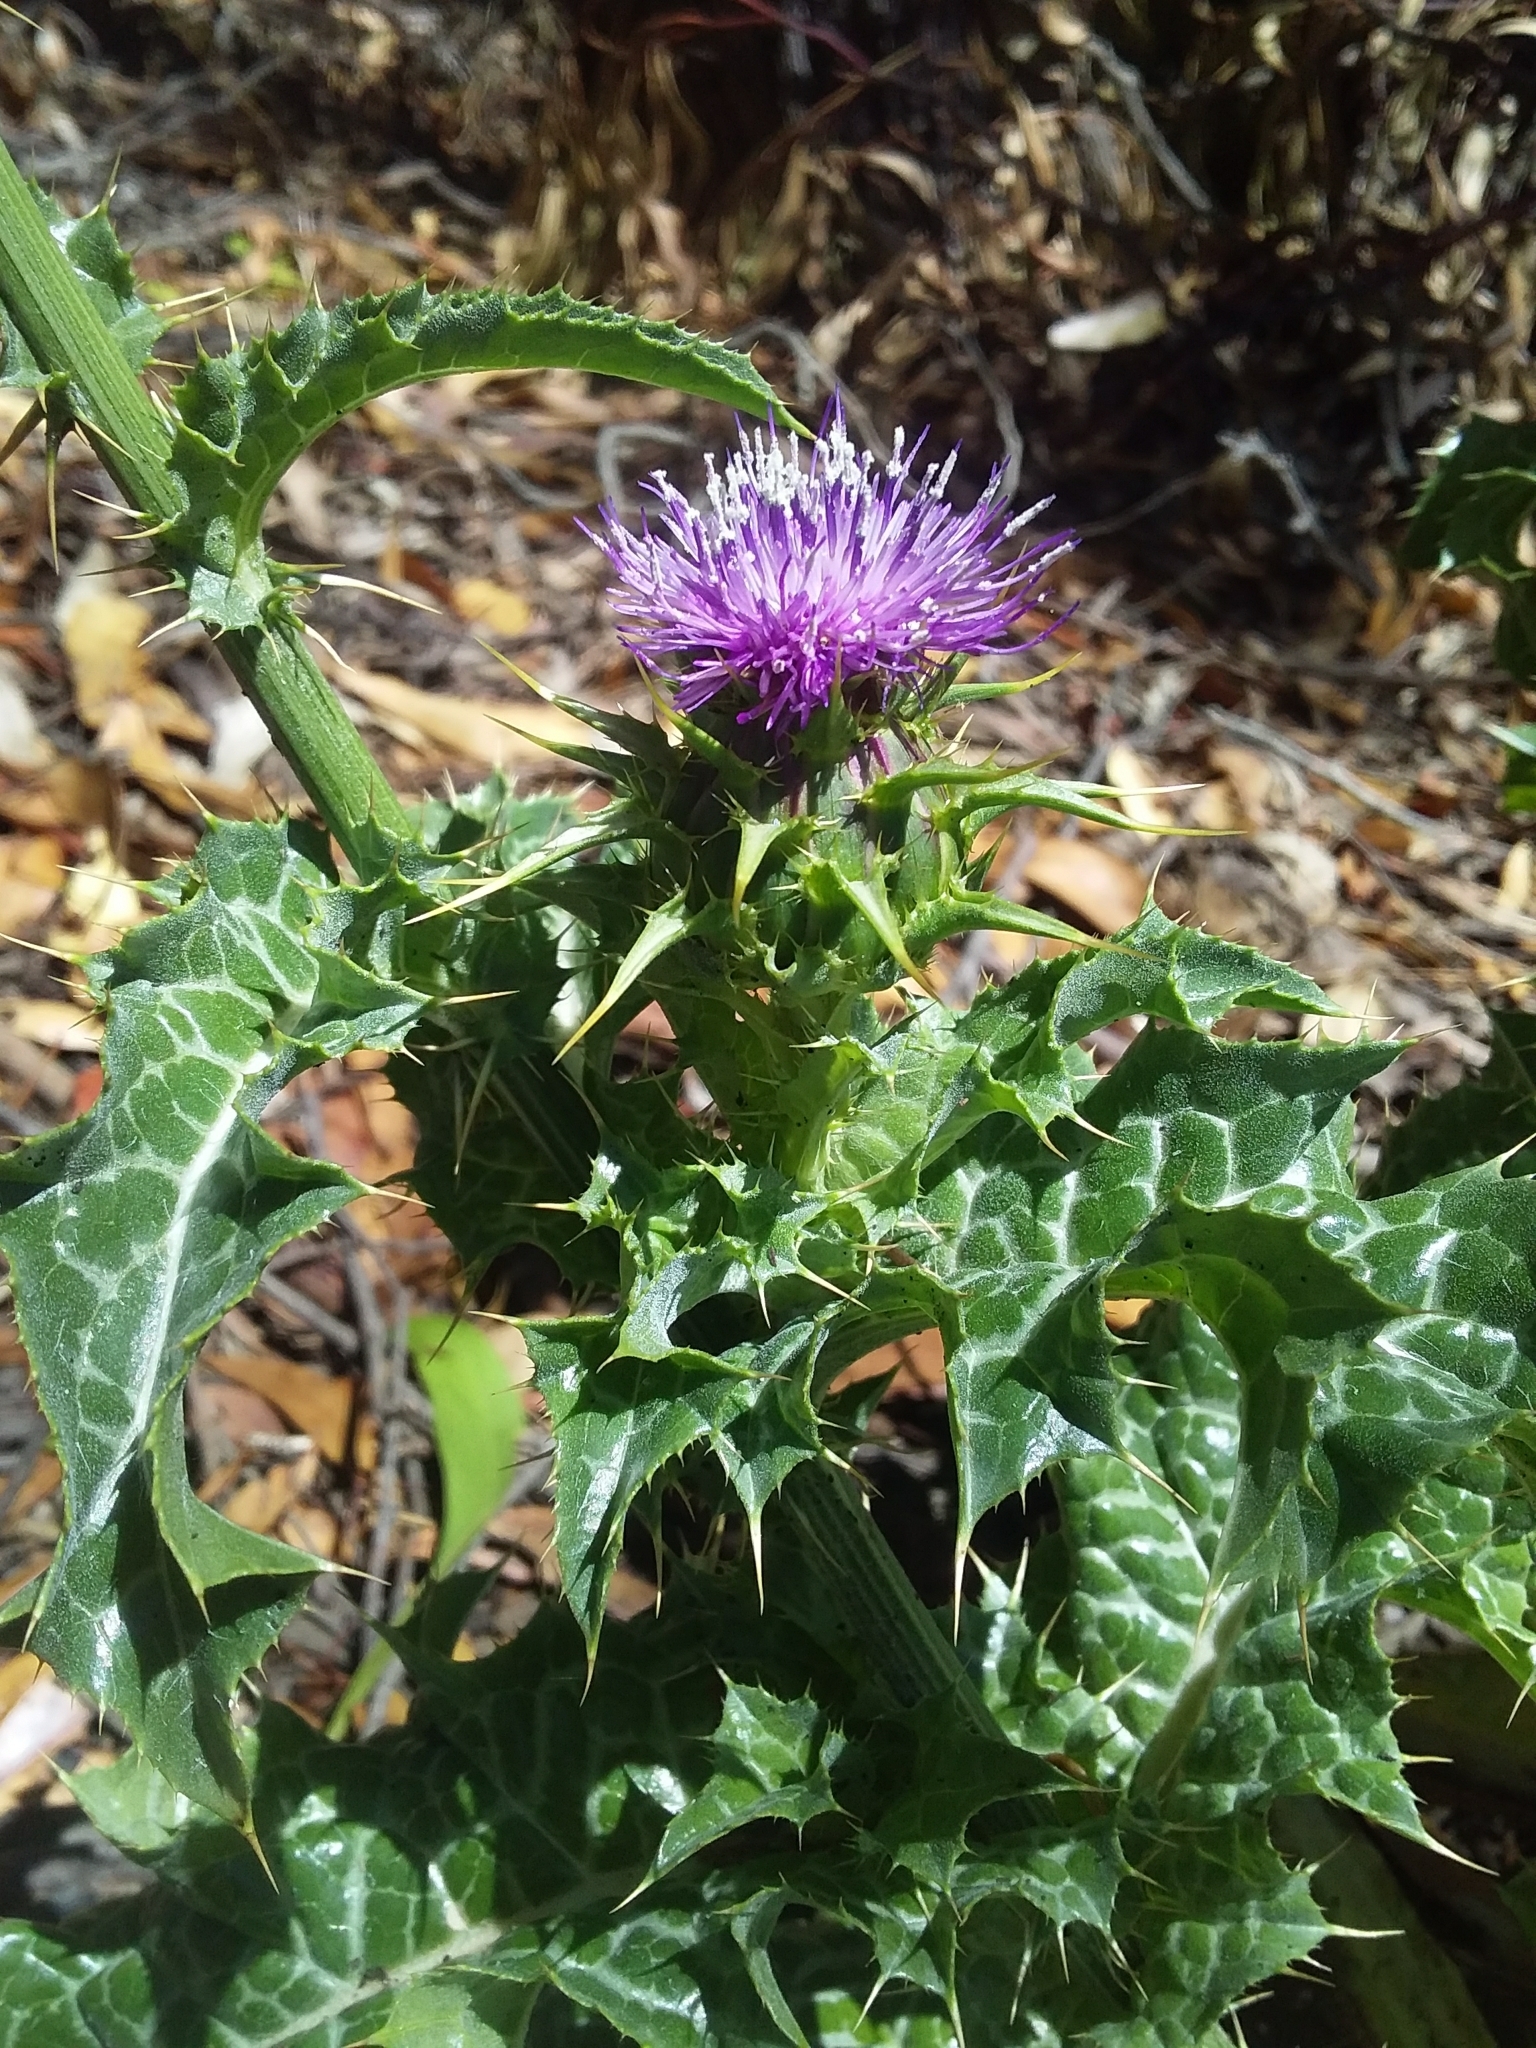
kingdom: Plantae
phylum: Tracheophyta
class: Magnoliopsida
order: Asterales
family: Asteraceae
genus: Silybum
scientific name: Silybum marianum
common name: Milk thistle
